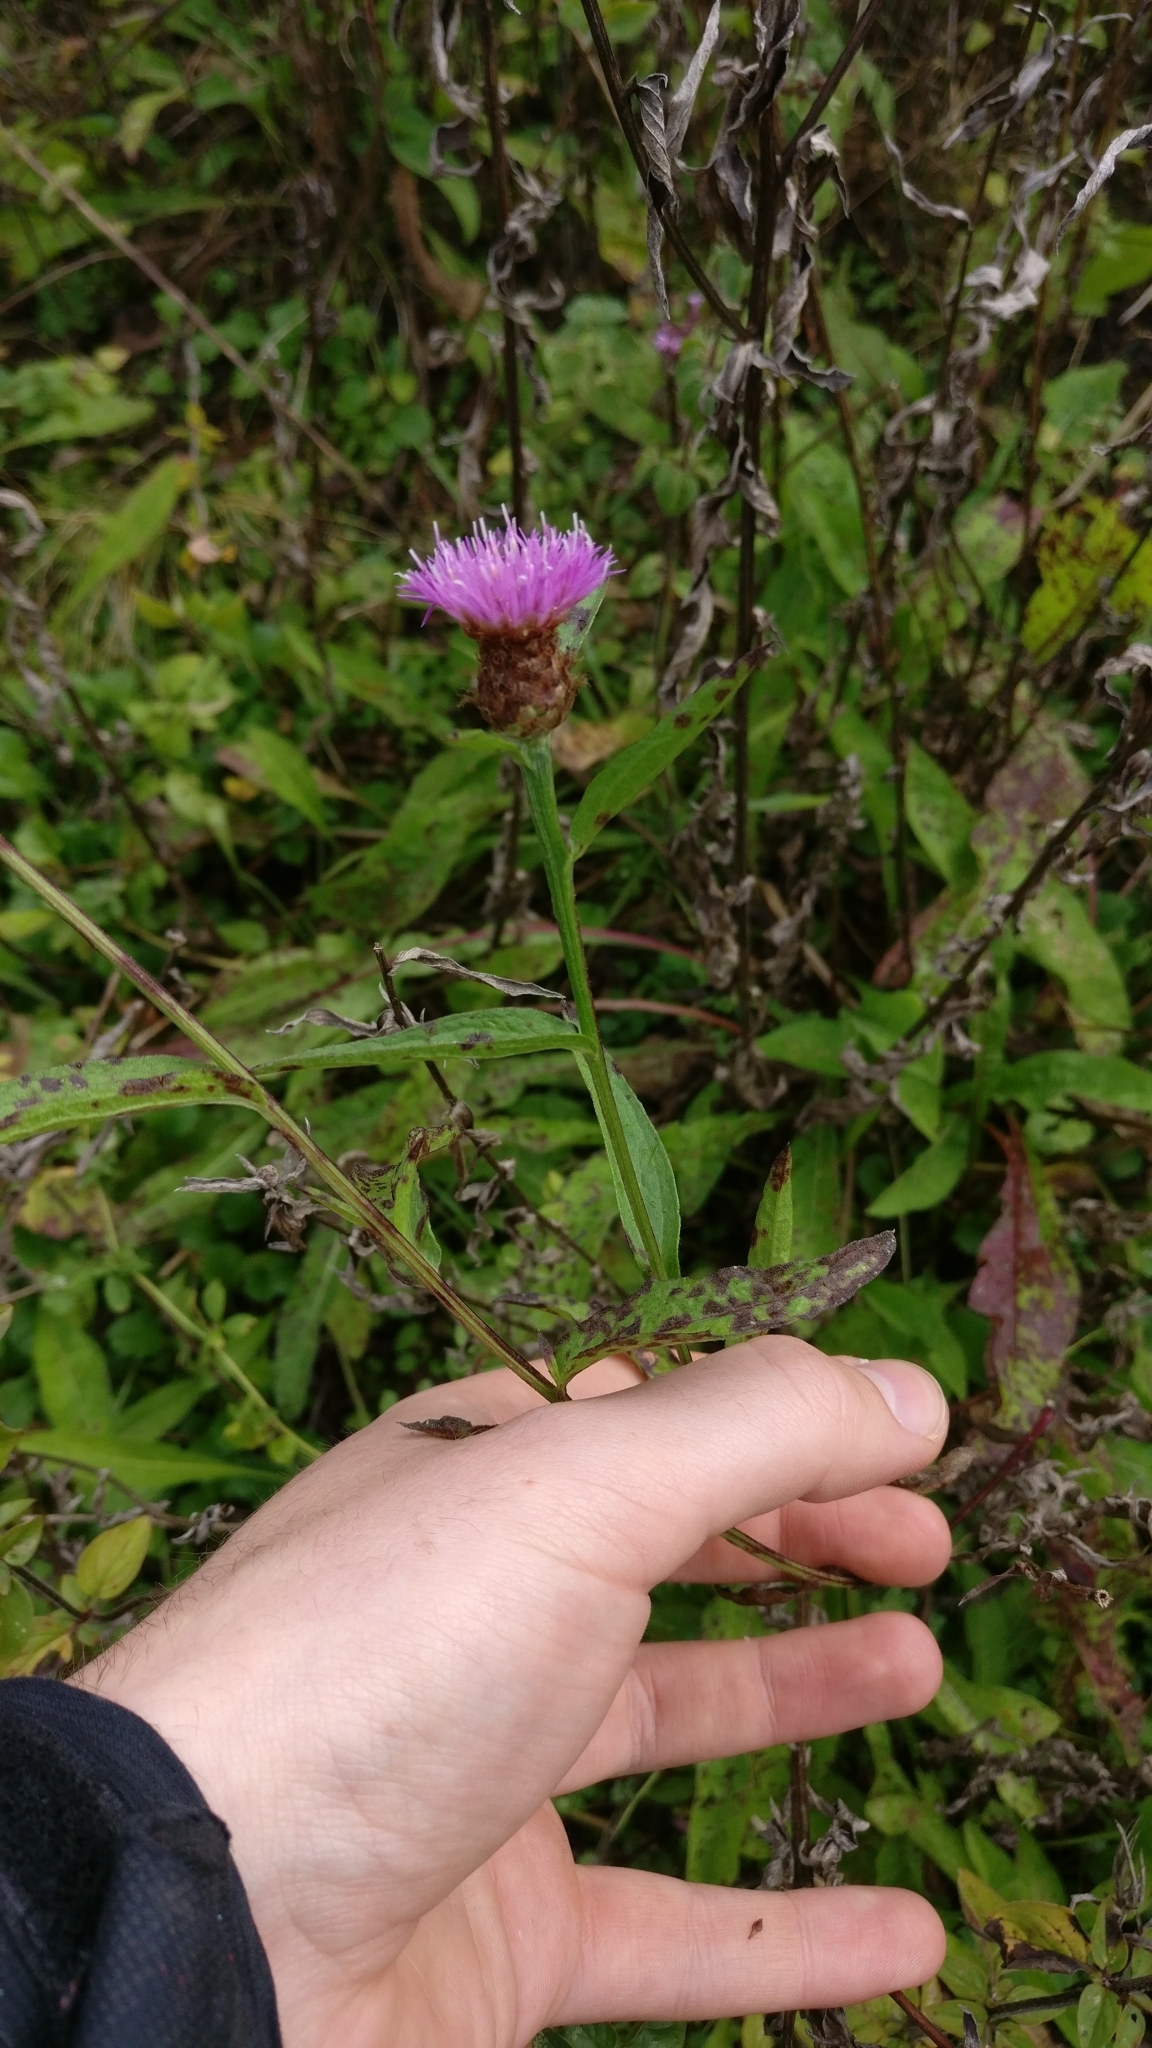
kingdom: Plantae
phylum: Tracheophyta
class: Magnoliopsida
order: Asterales
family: Asteraceae
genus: Centaurea
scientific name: Centaurea jacea
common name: Brown knapweed
